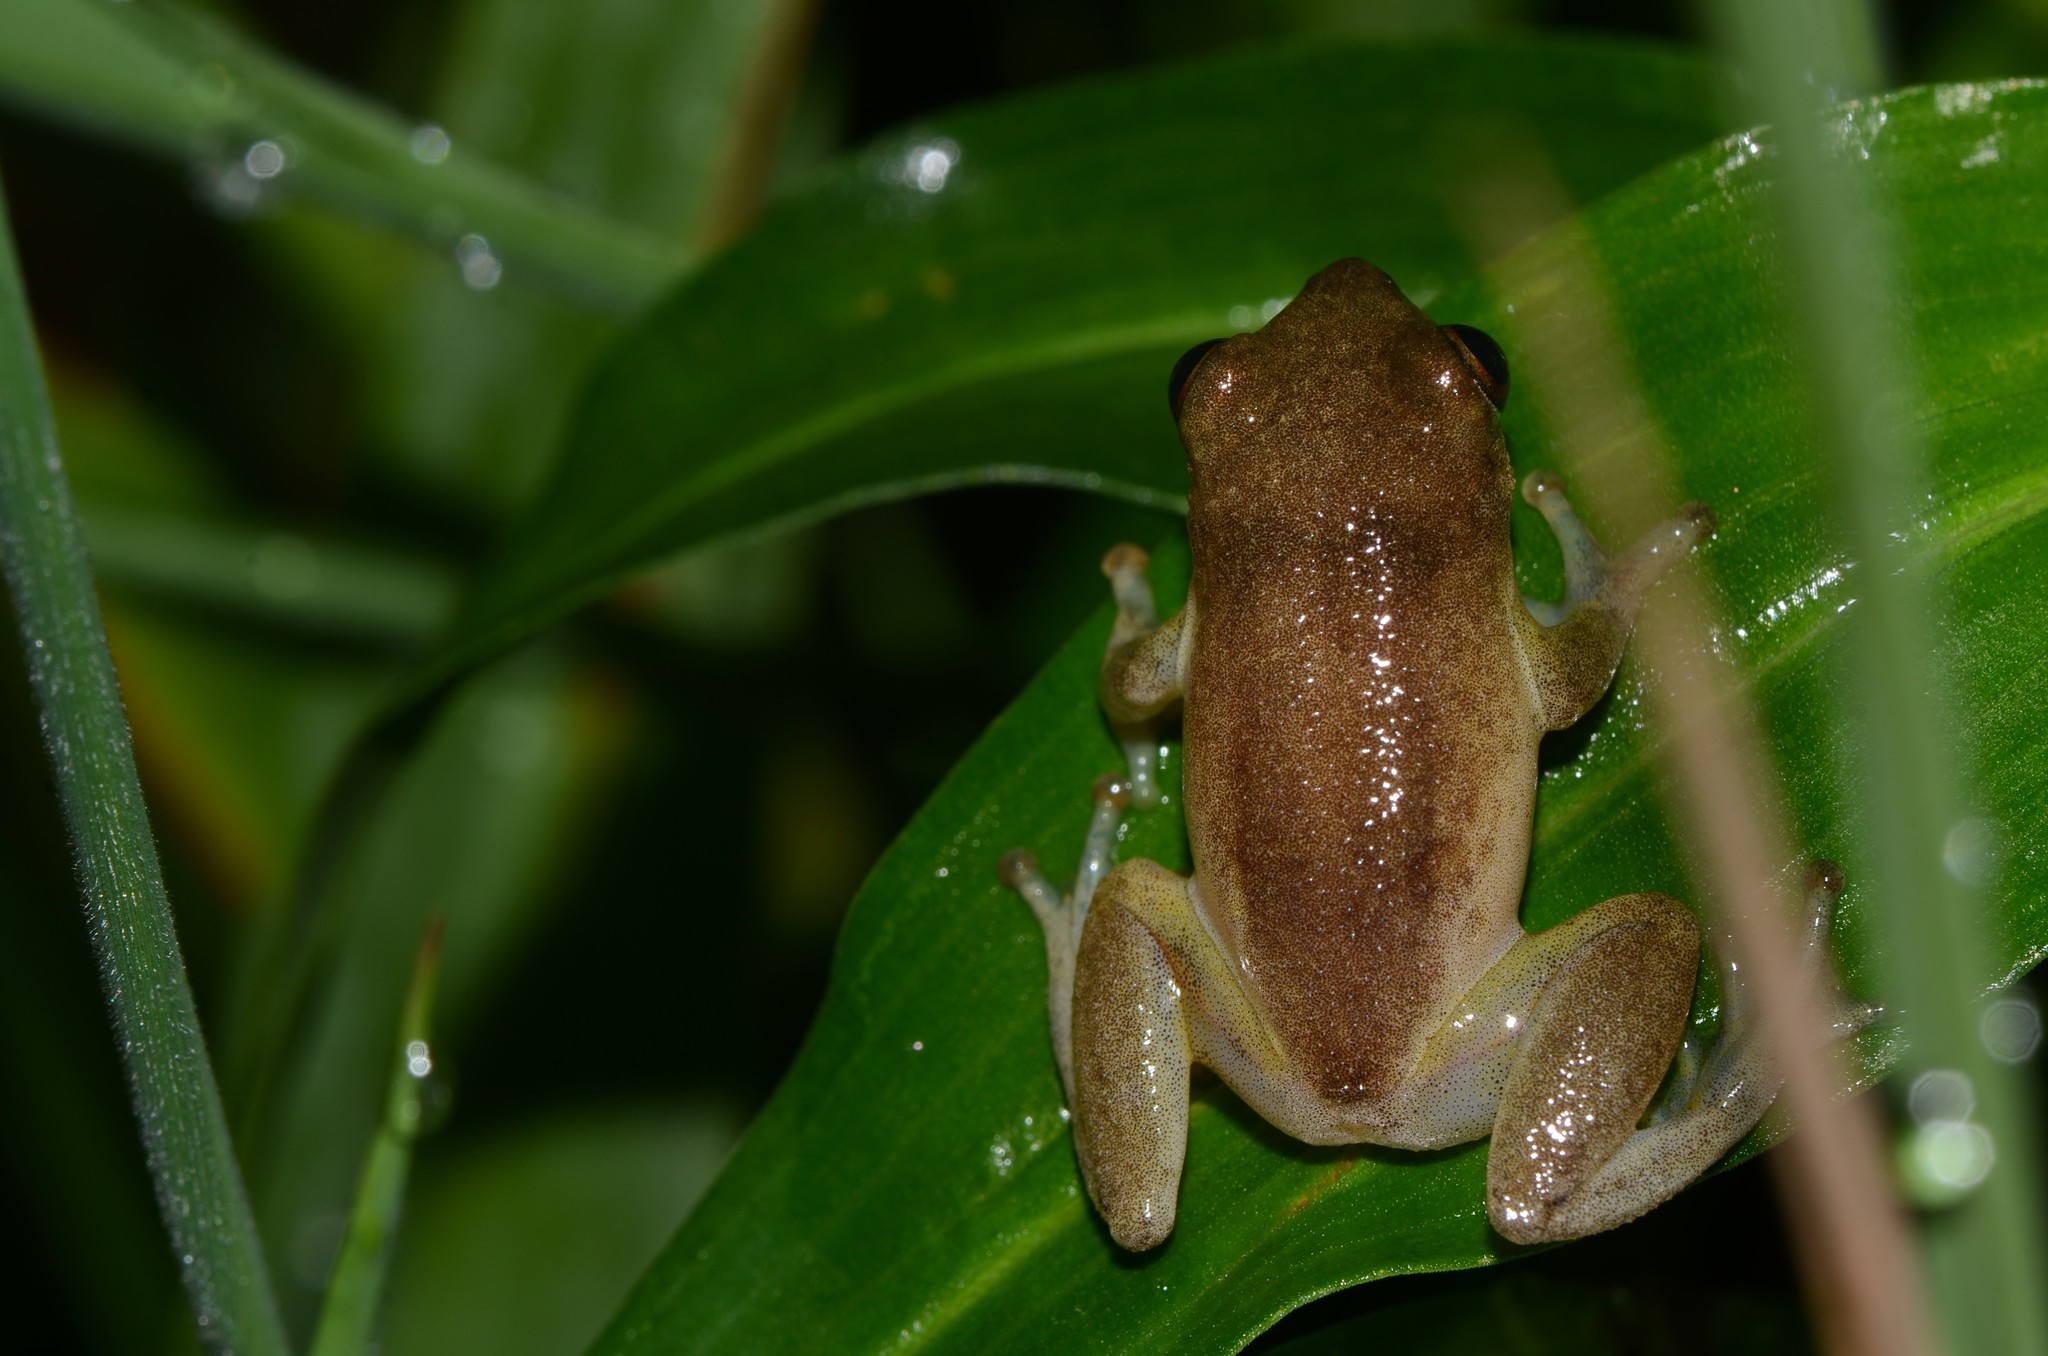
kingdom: Animalia
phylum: Chordata
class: Amphibia
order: Anura
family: Hyperoliidae
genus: Hyperolius
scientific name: Hyperolius stictus
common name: Yellow-spotted reed frog
